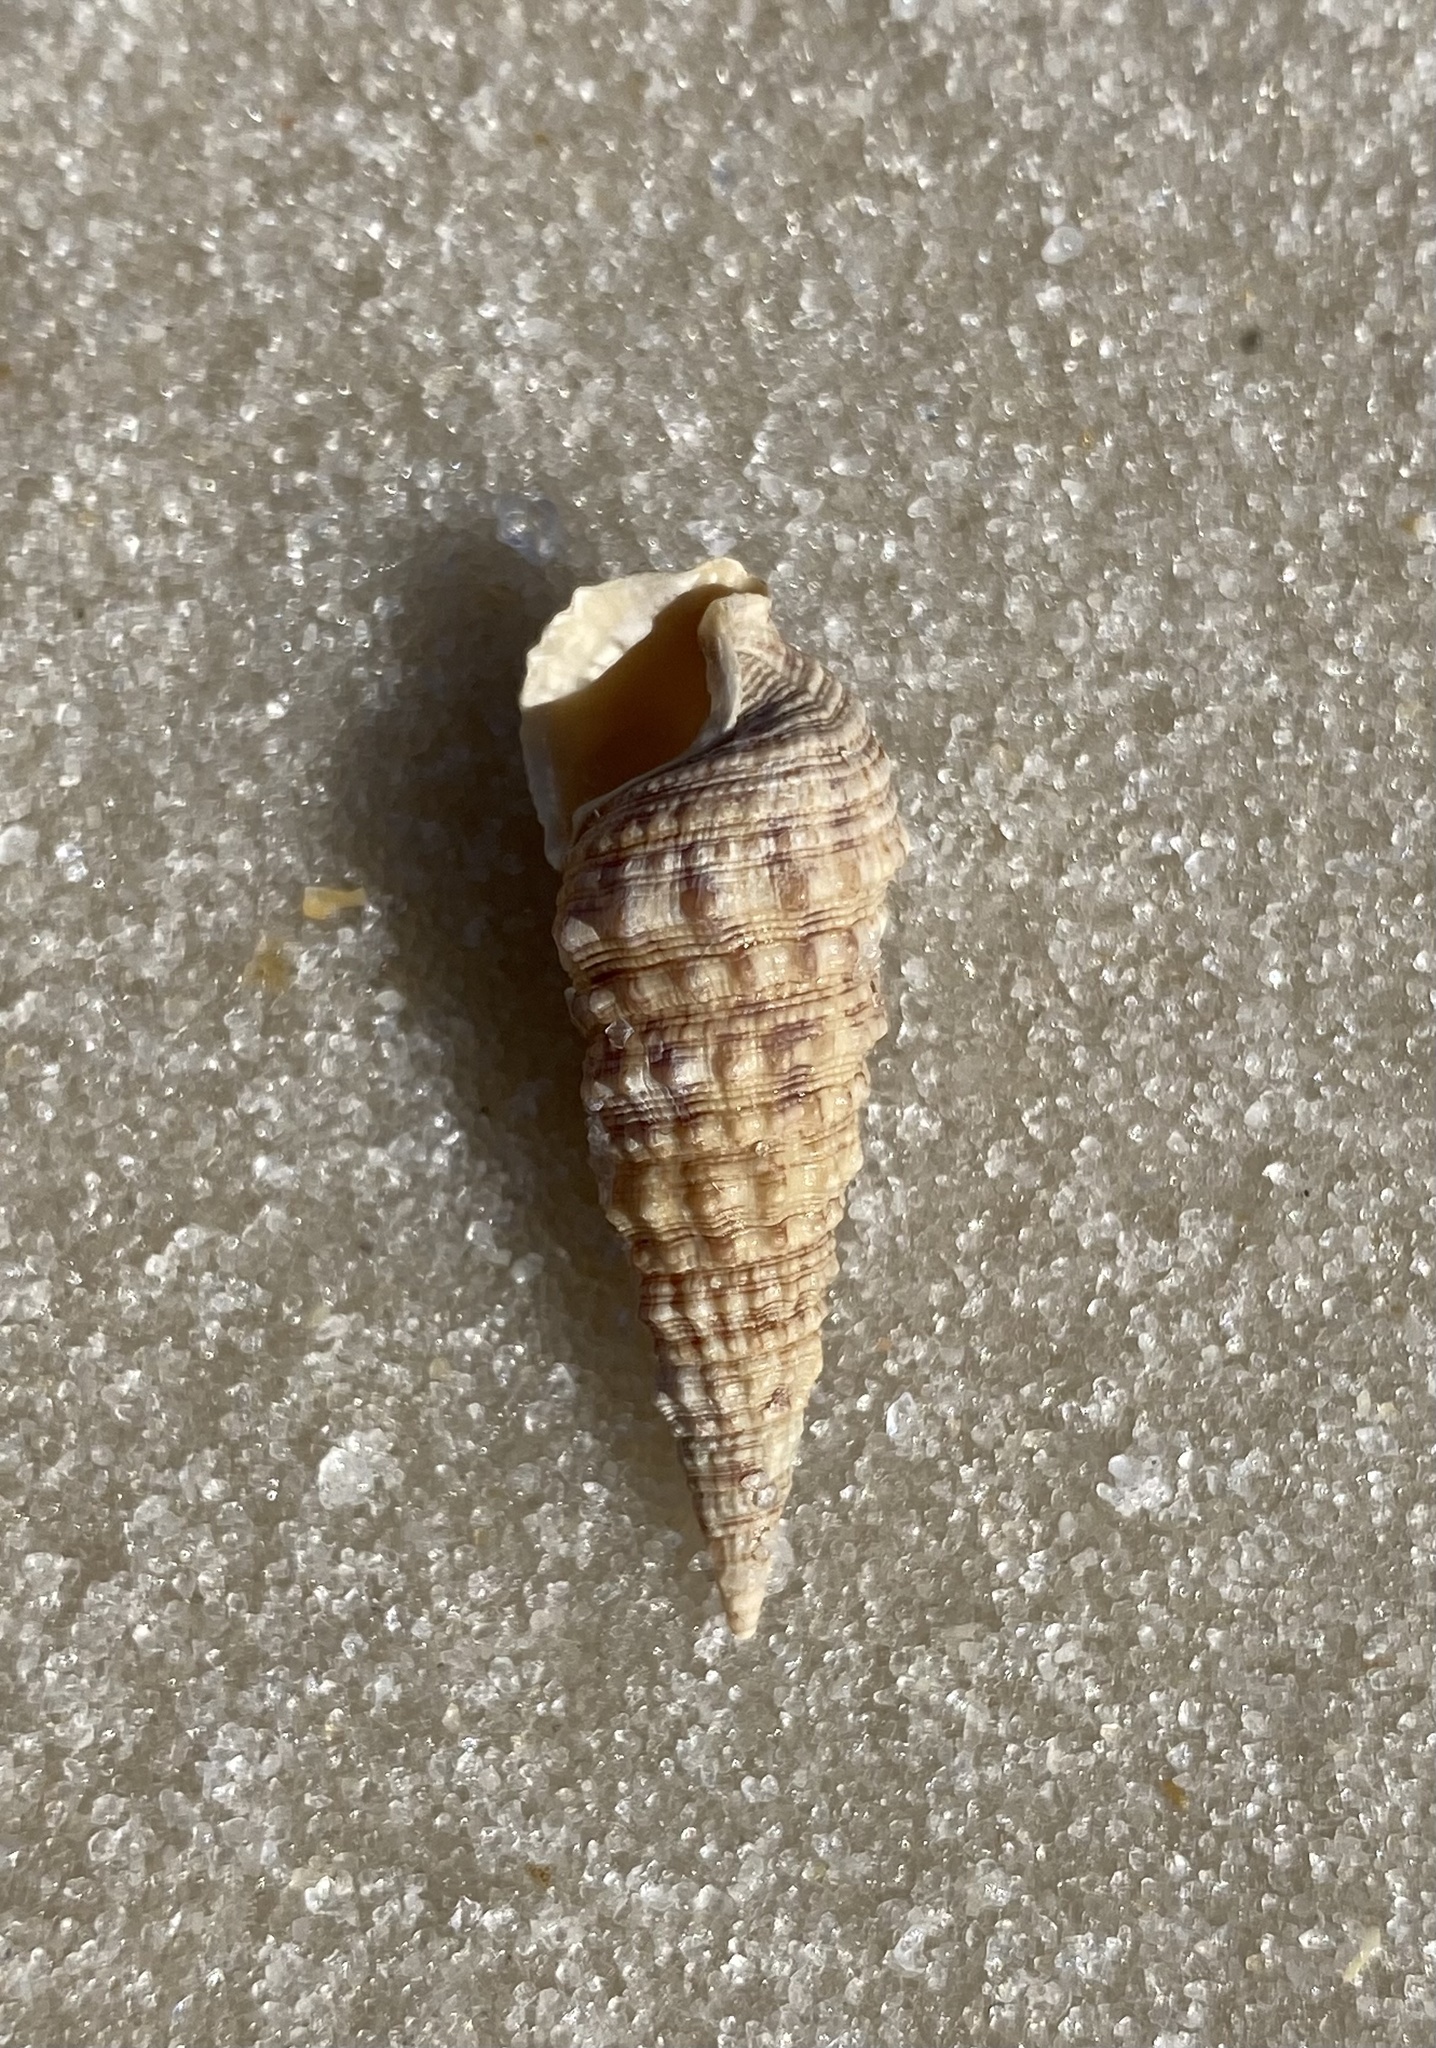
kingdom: Animalia
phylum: Mollusca
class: Gastropoda
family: Cerithiidae
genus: Cerithium
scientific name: Cerithium atratum
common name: Dark cerith
